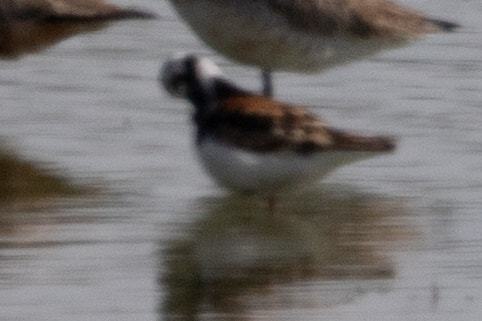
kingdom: Animalia
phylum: Chordata
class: Aves
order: Charadriiformes
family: Scolopacidae
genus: Arenaria
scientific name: Arenaria interpres
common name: Ruddy turnstone
